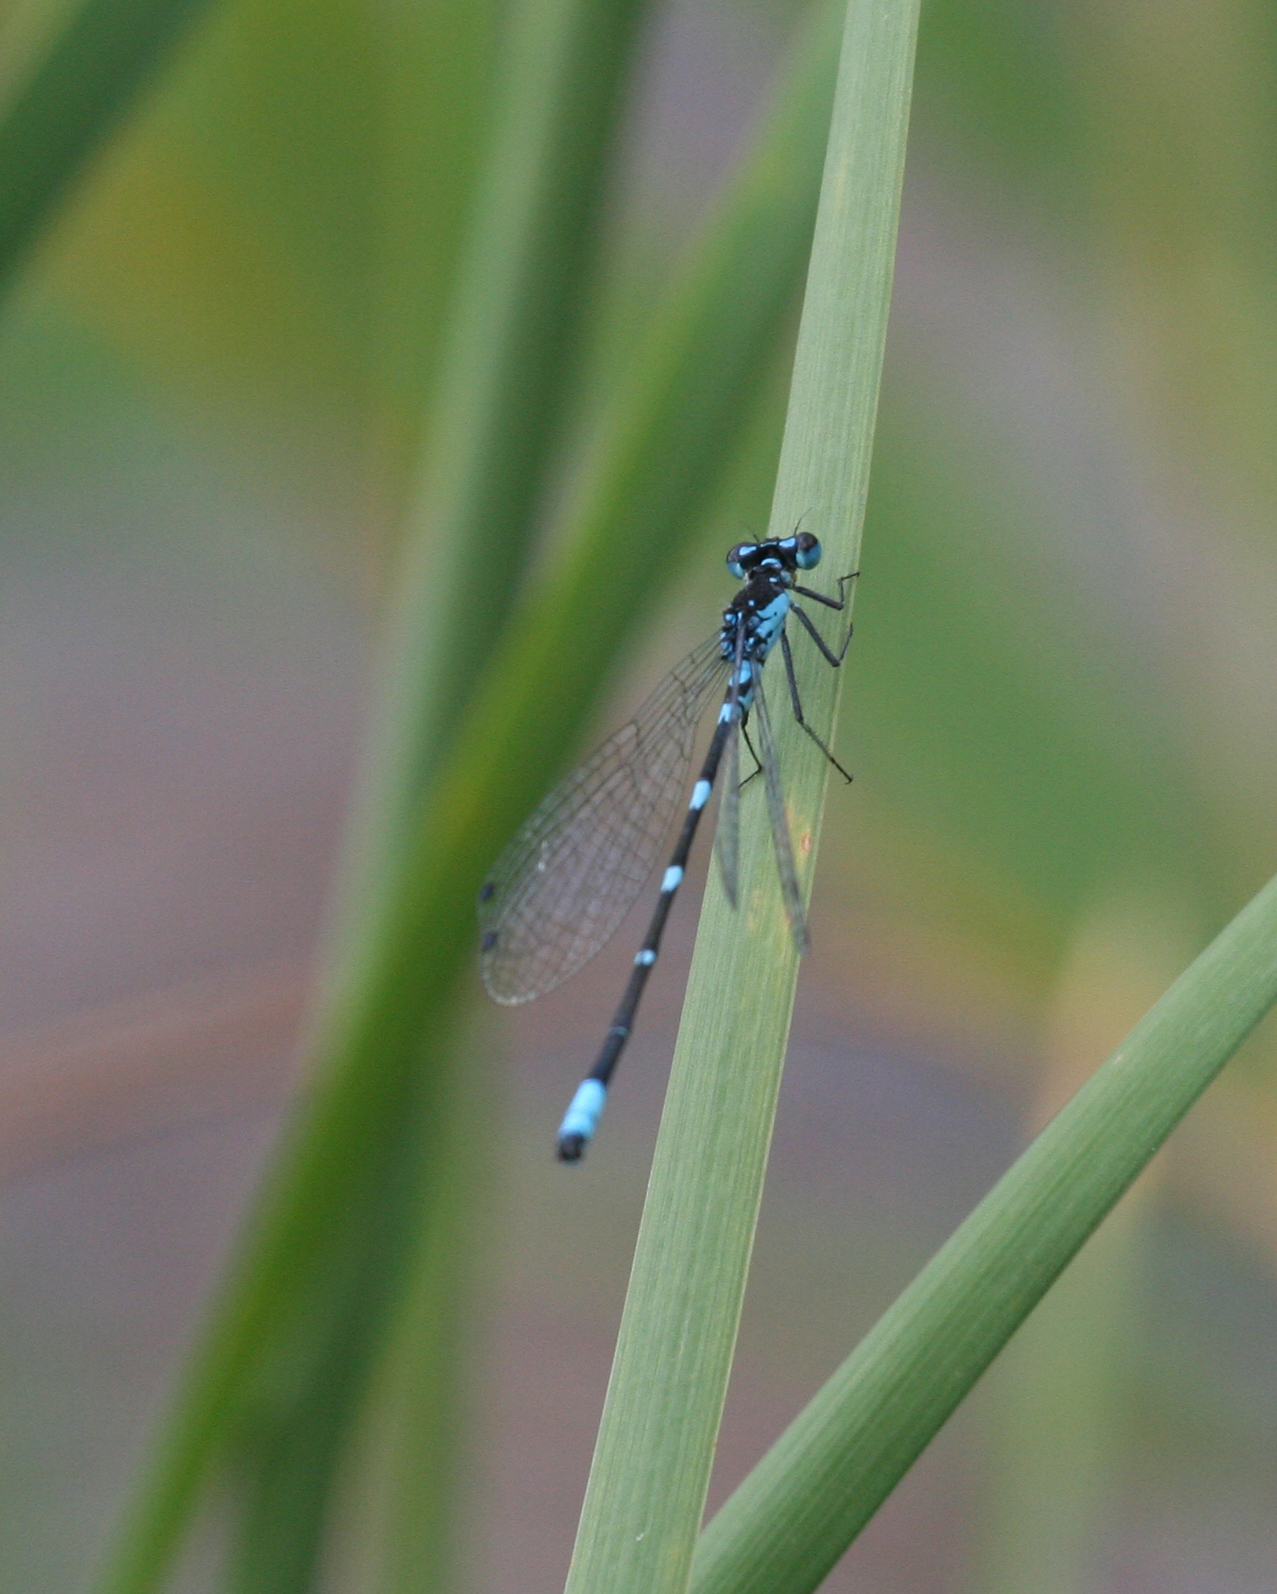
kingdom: Animalia
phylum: Arthropoda
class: Insecta
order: Odonata
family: Coenagrionidae
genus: Coenagrion
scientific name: Coenagrion pulchellum
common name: Variable bluet
